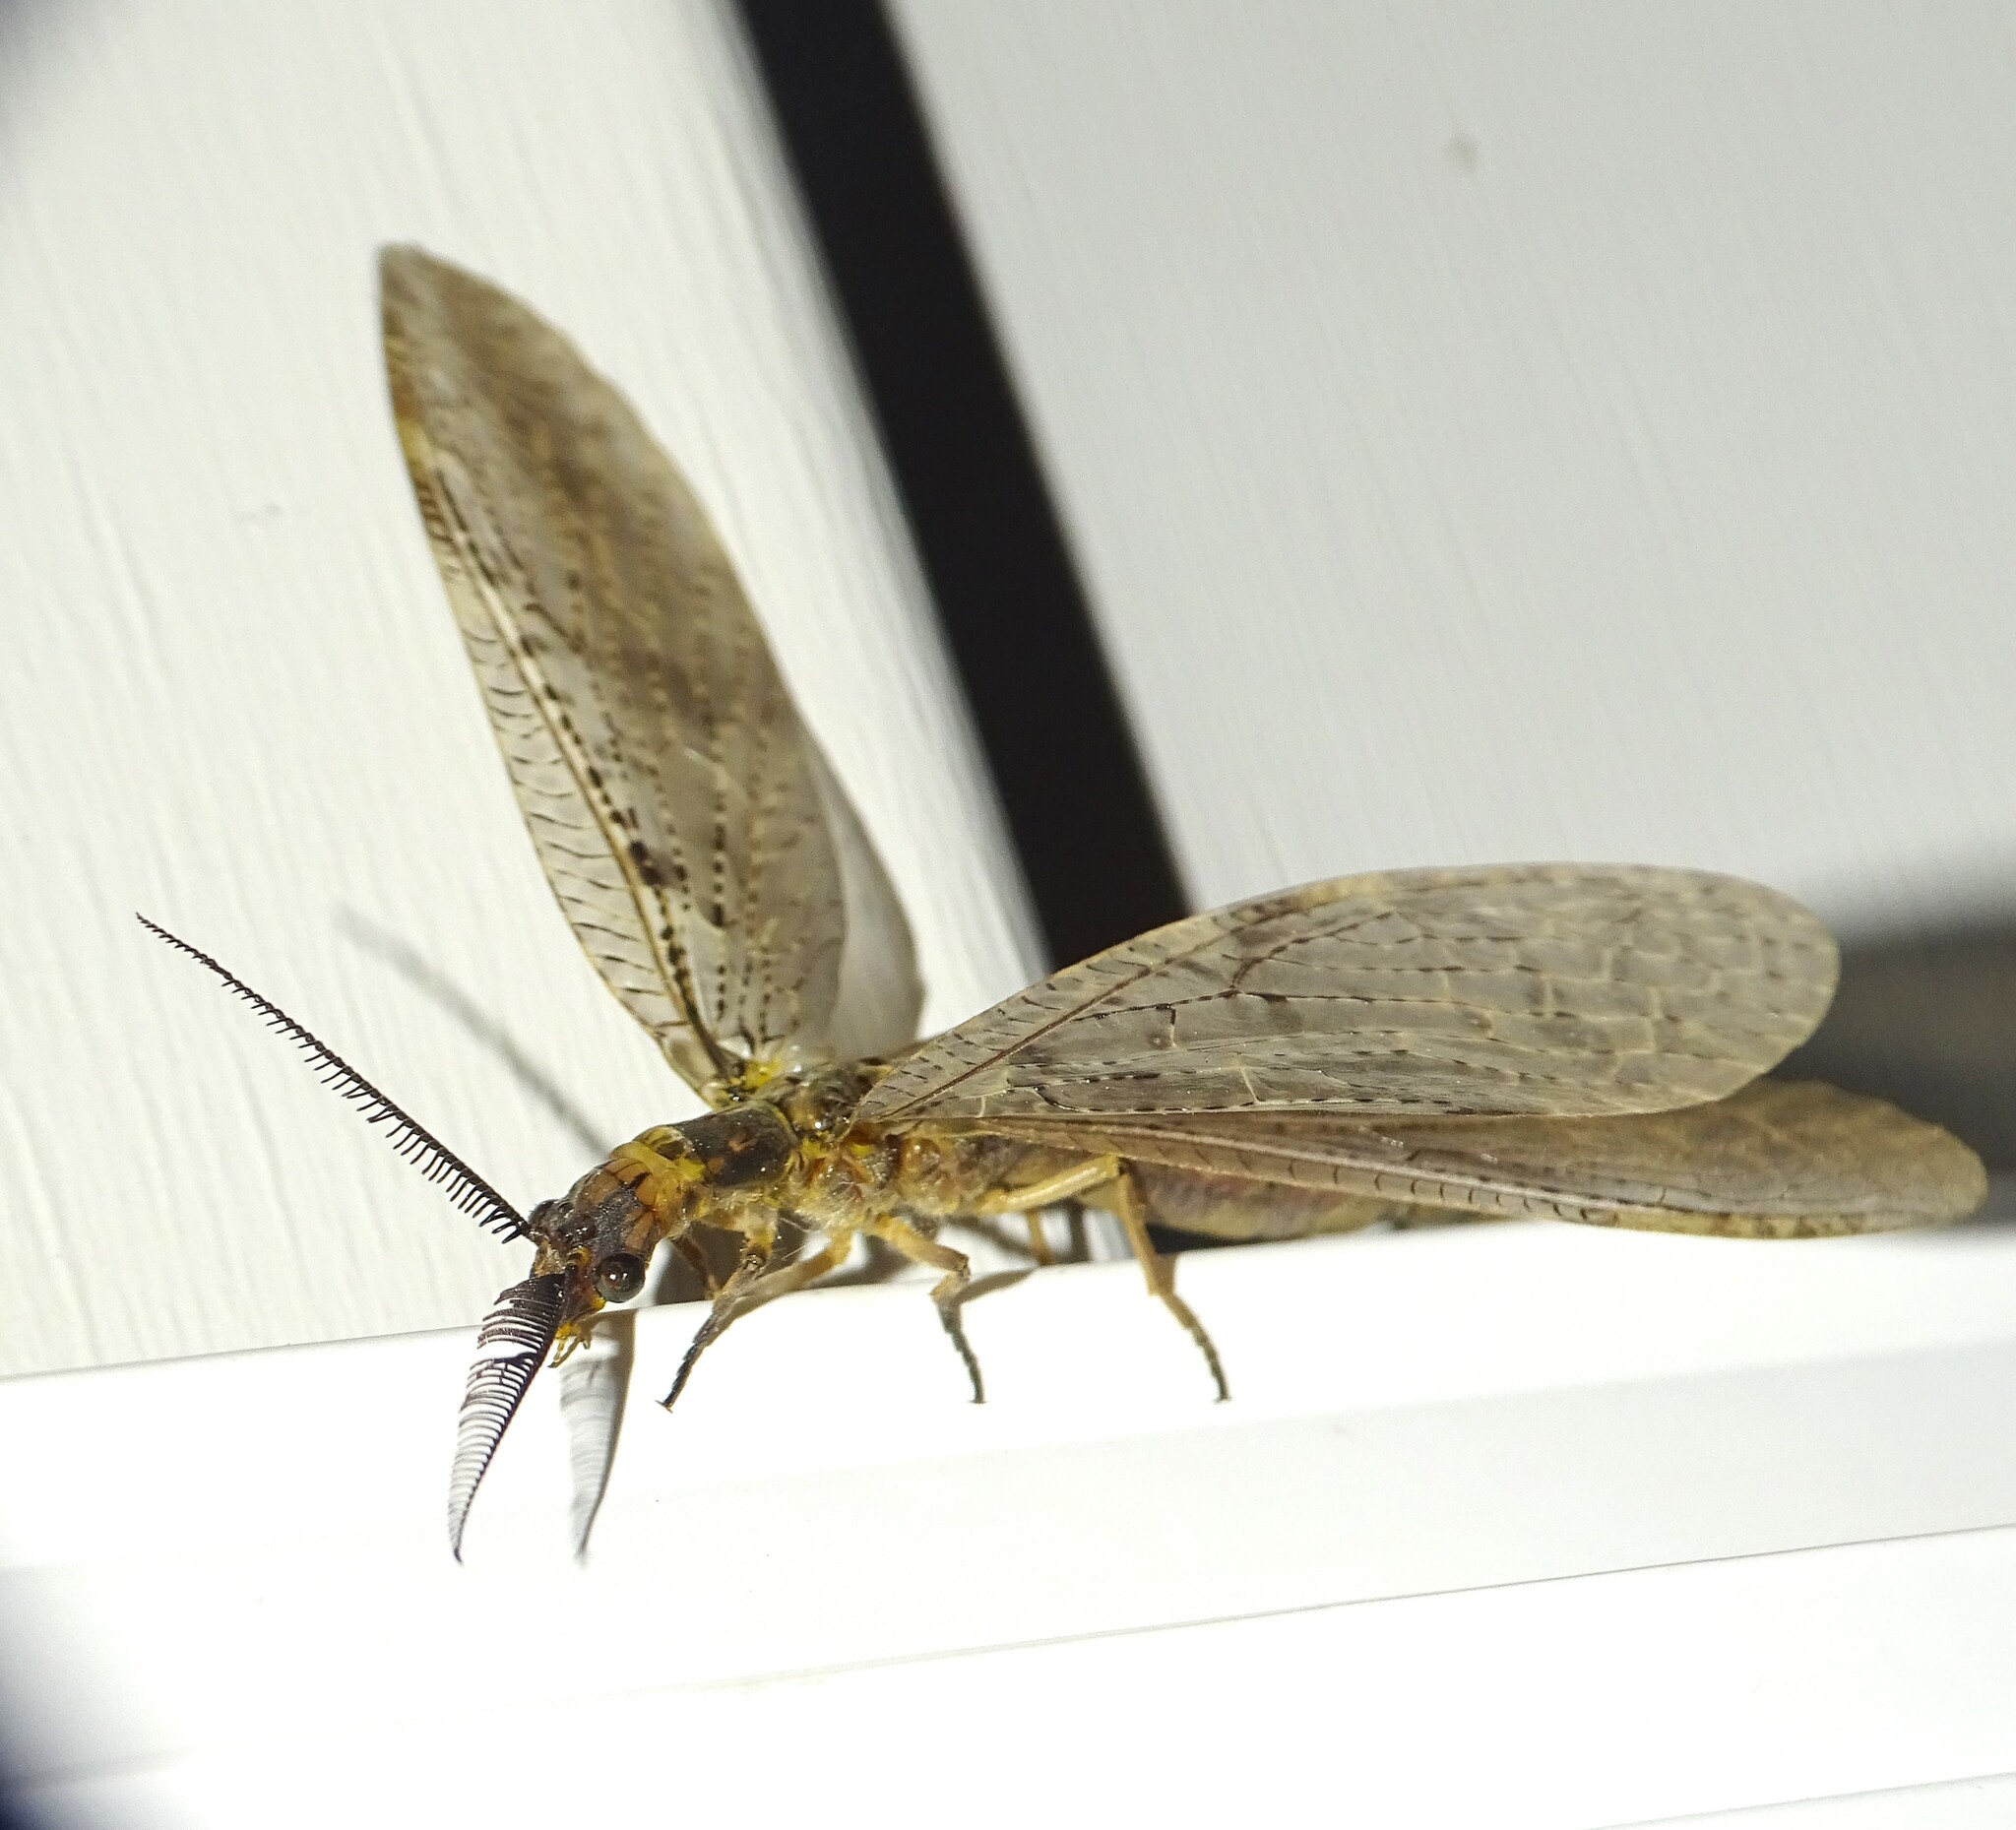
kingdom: Animalia
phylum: Arthropoda
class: Insecta
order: Megaloptera
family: Corydalidae
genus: Chauliodes
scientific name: Chauliodes pectinicornis
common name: Summer fishfly
